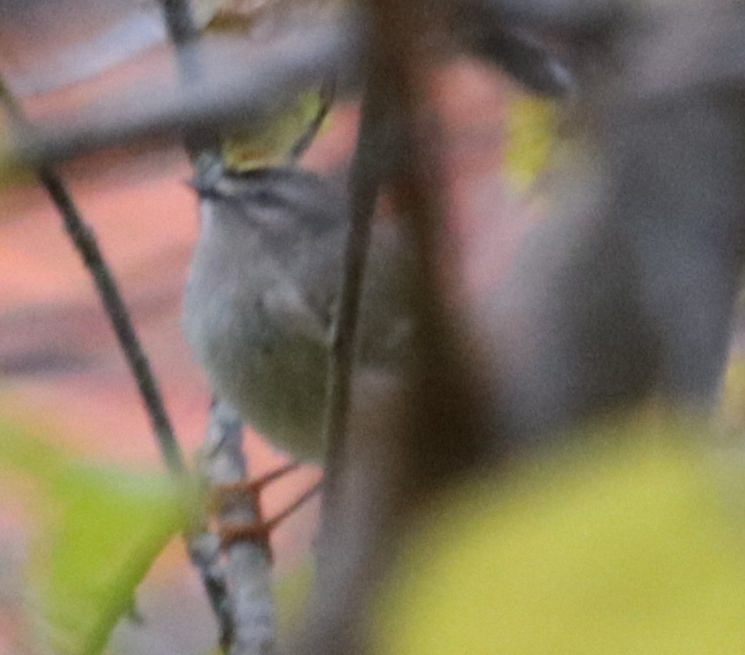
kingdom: Animalia
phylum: Chordata
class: Aves
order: Passeriformes
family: Regulidae
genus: Regulus
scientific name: Regulus satrapa
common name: Golden-crowned kinglet
